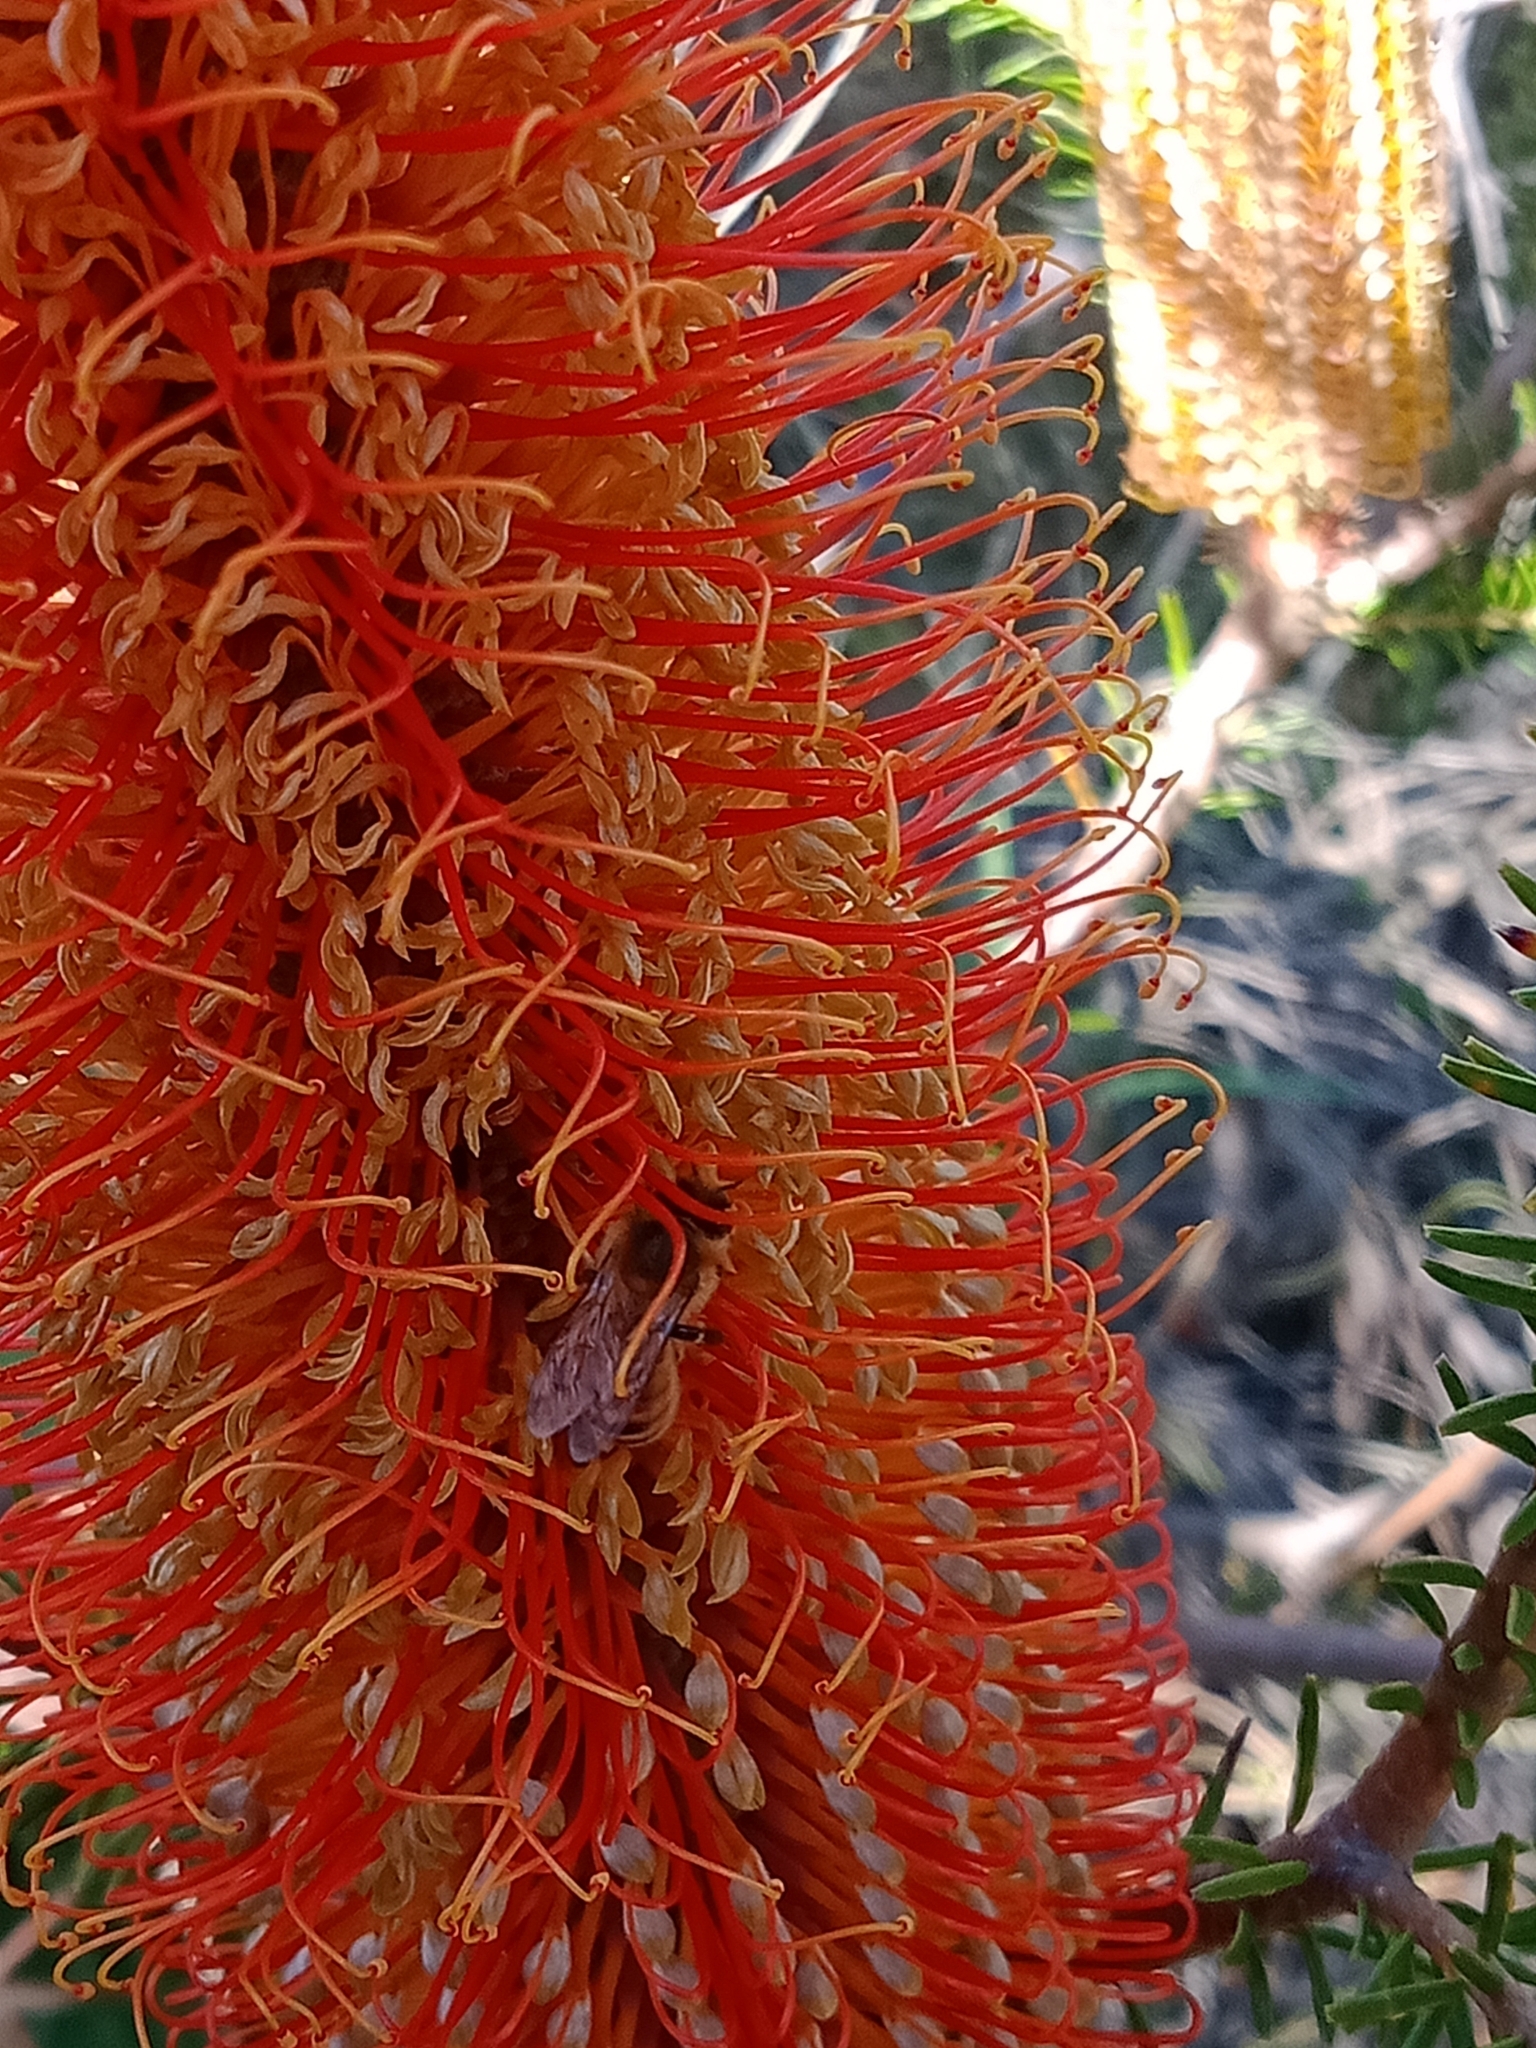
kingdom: Animalia
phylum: Arthropoda
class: Insecta
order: Hymenoptera
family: Apidae
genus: Apis
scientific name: Apis mellifera
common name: Honey bee
